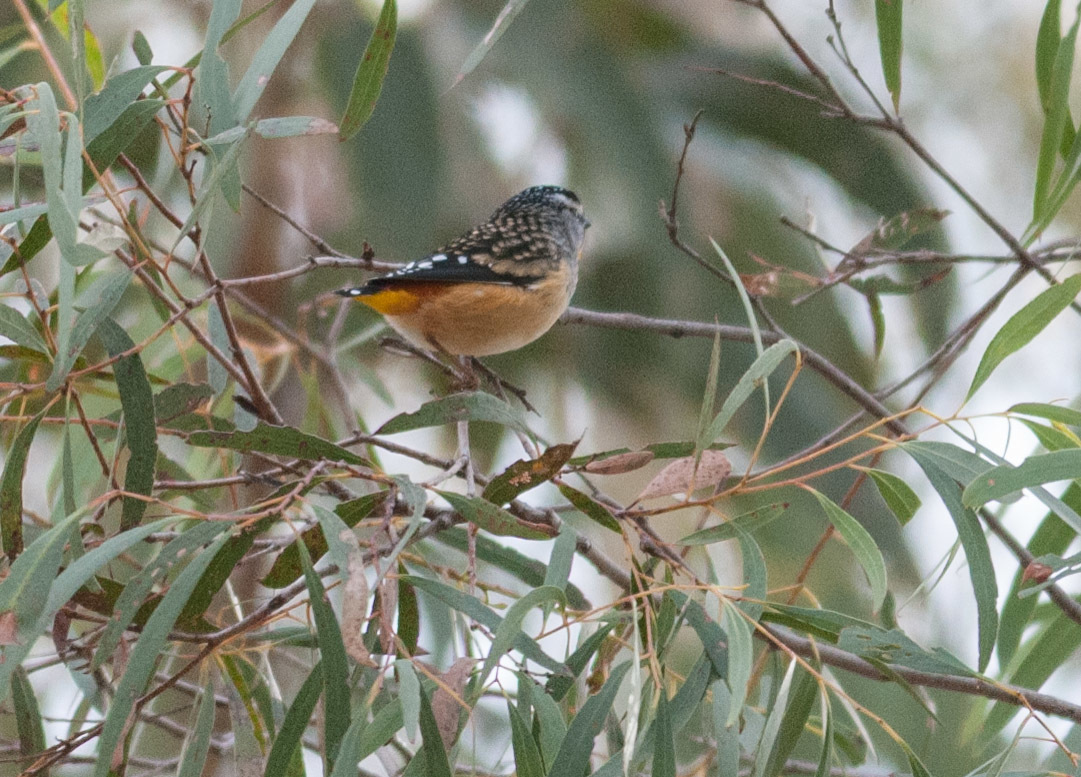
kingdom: Animalia
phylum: Chordata
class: Aves
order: Passeriformes
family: Pardalotidae
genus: Pardalotus
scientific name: Pardalotus punctatus
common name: Spotted pardalote
